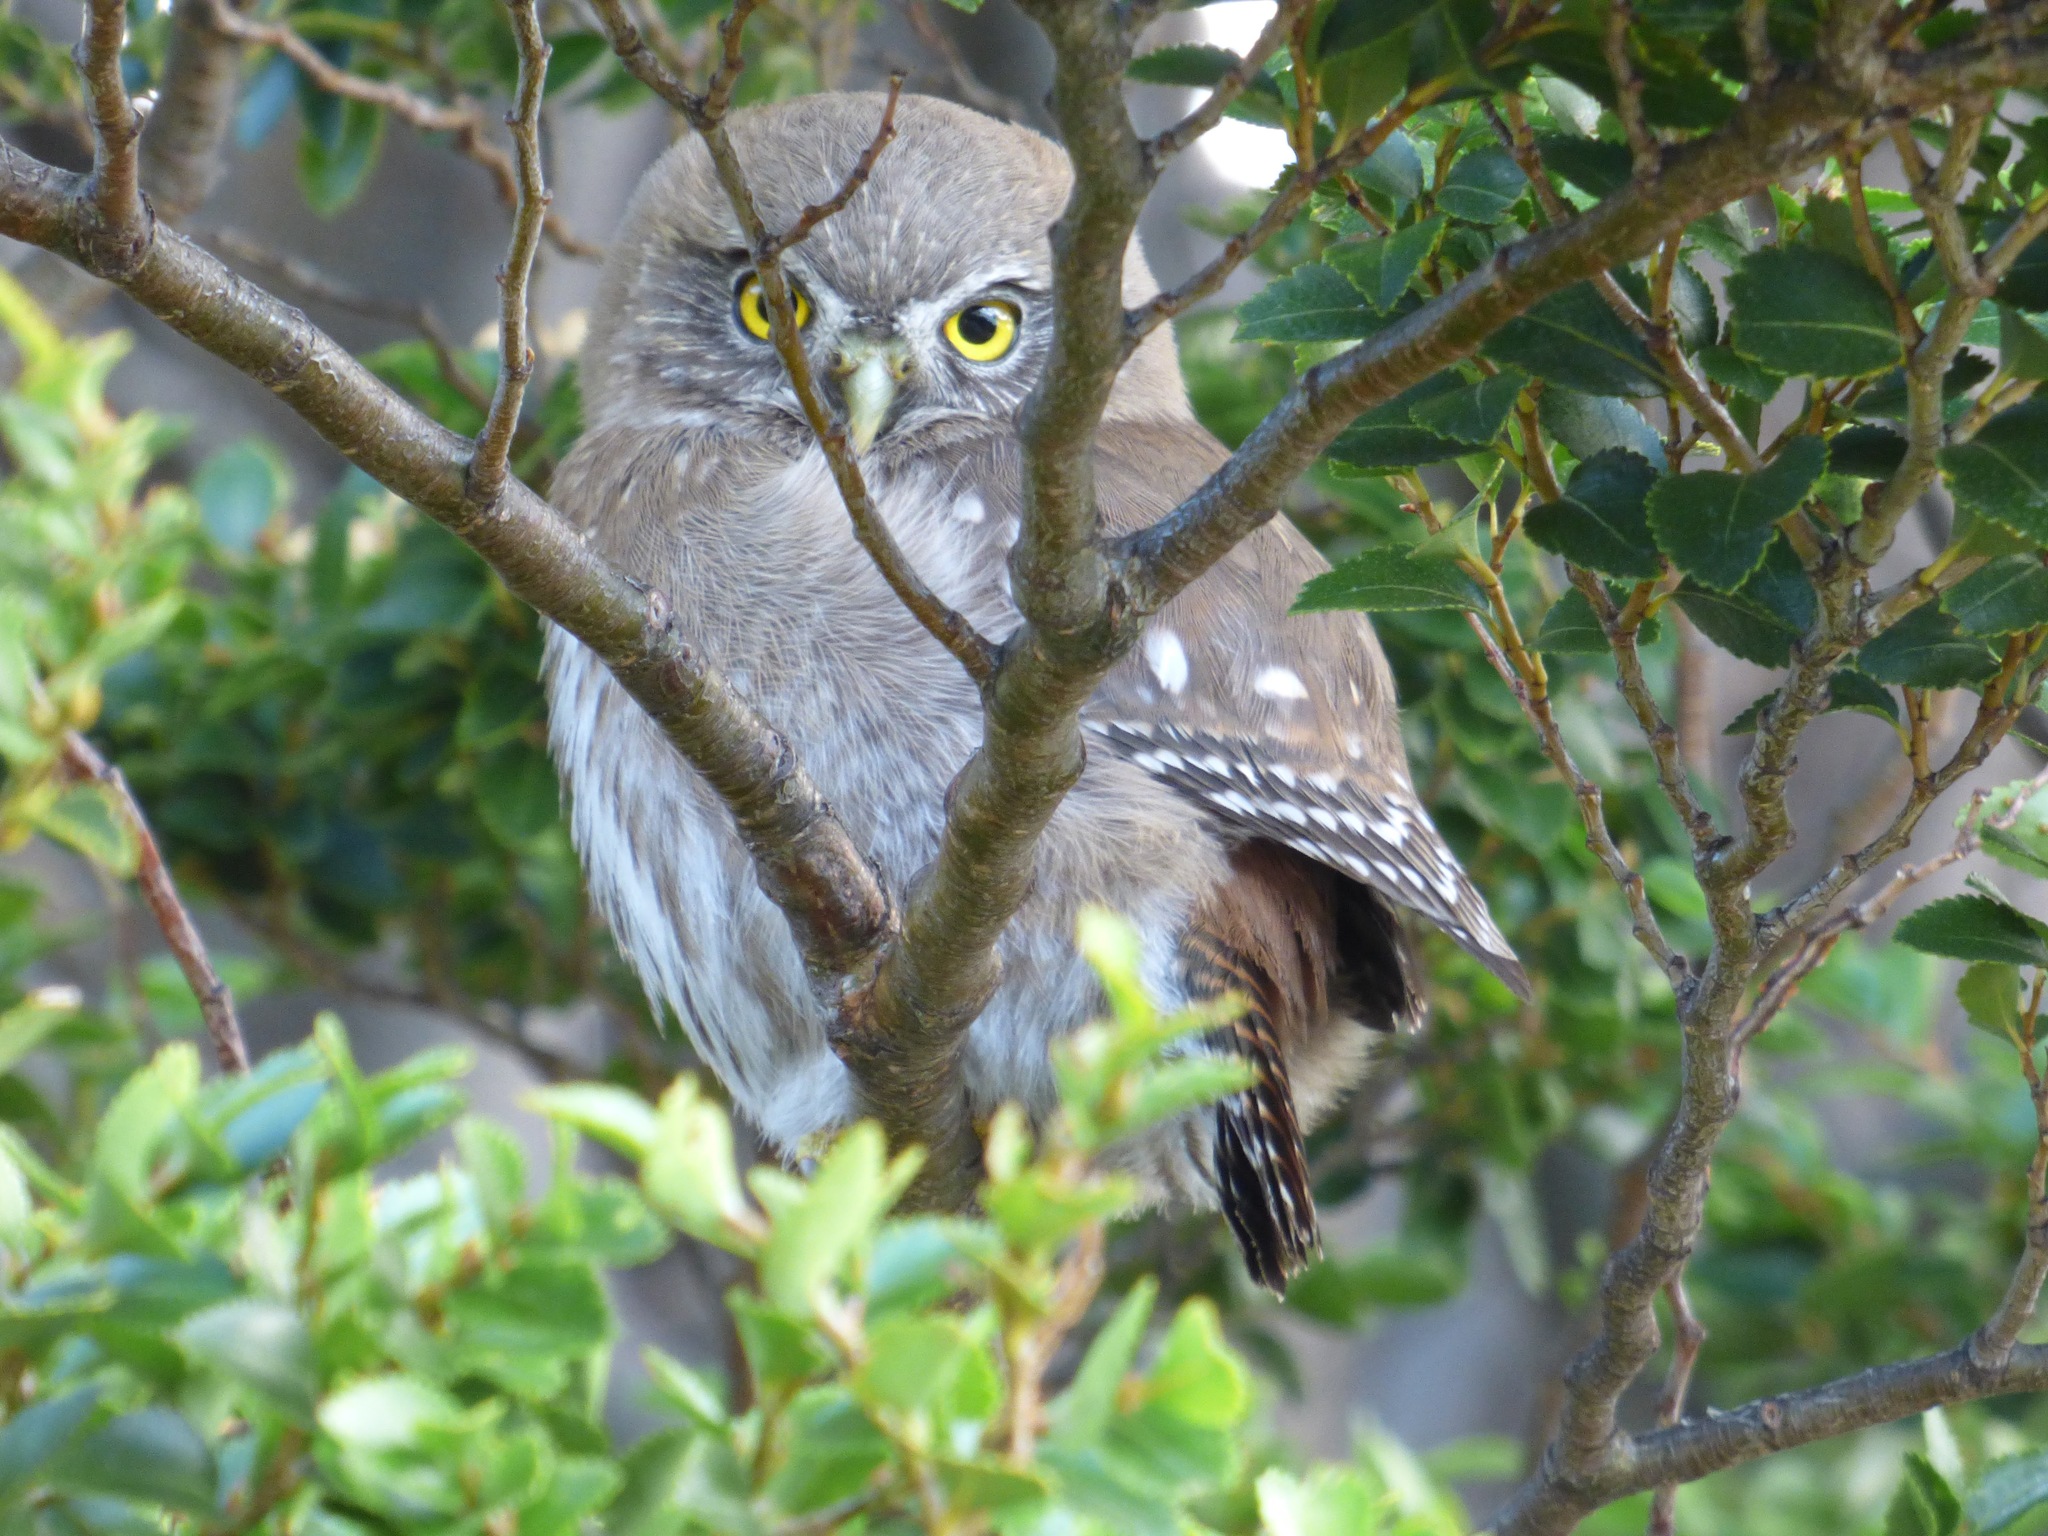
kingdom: Animalia
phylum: Chordata
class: Aves
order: Strigiformes
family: Strigidae
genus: Glaucidium
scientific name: Glaucidium nana
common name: Austral pygmy-owl
